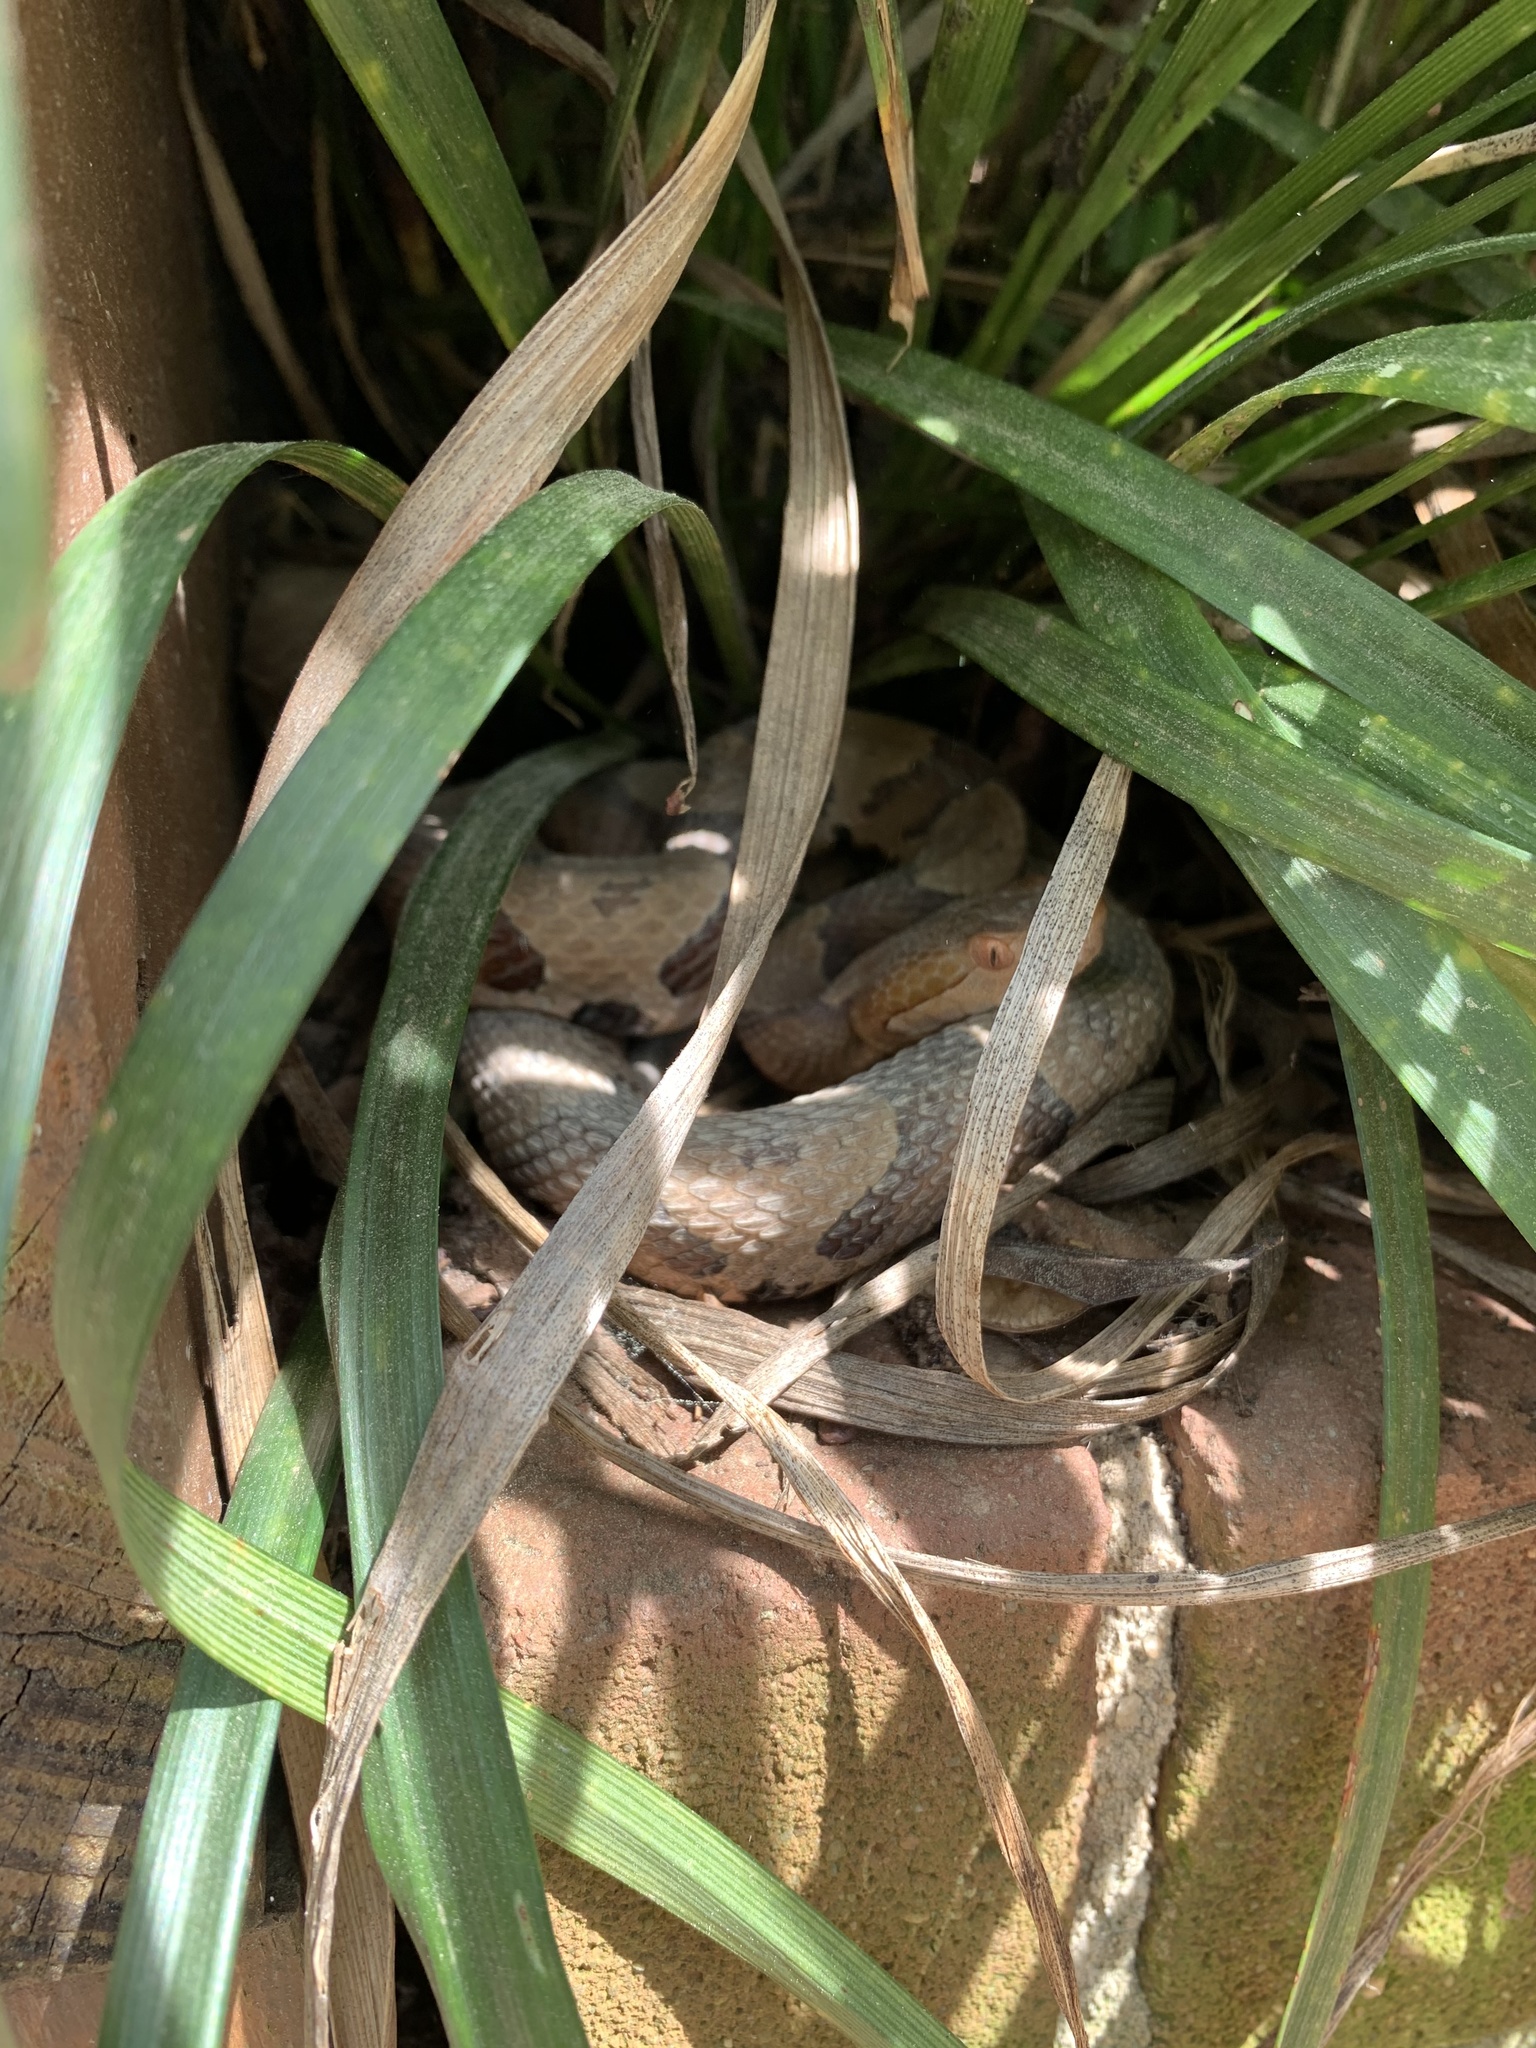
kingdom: Animalia
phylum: Chordata
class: Squamata
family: Viperidae
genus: Agkistrodon
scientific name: Agkistrodon contortrix
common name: Northern copperhead
